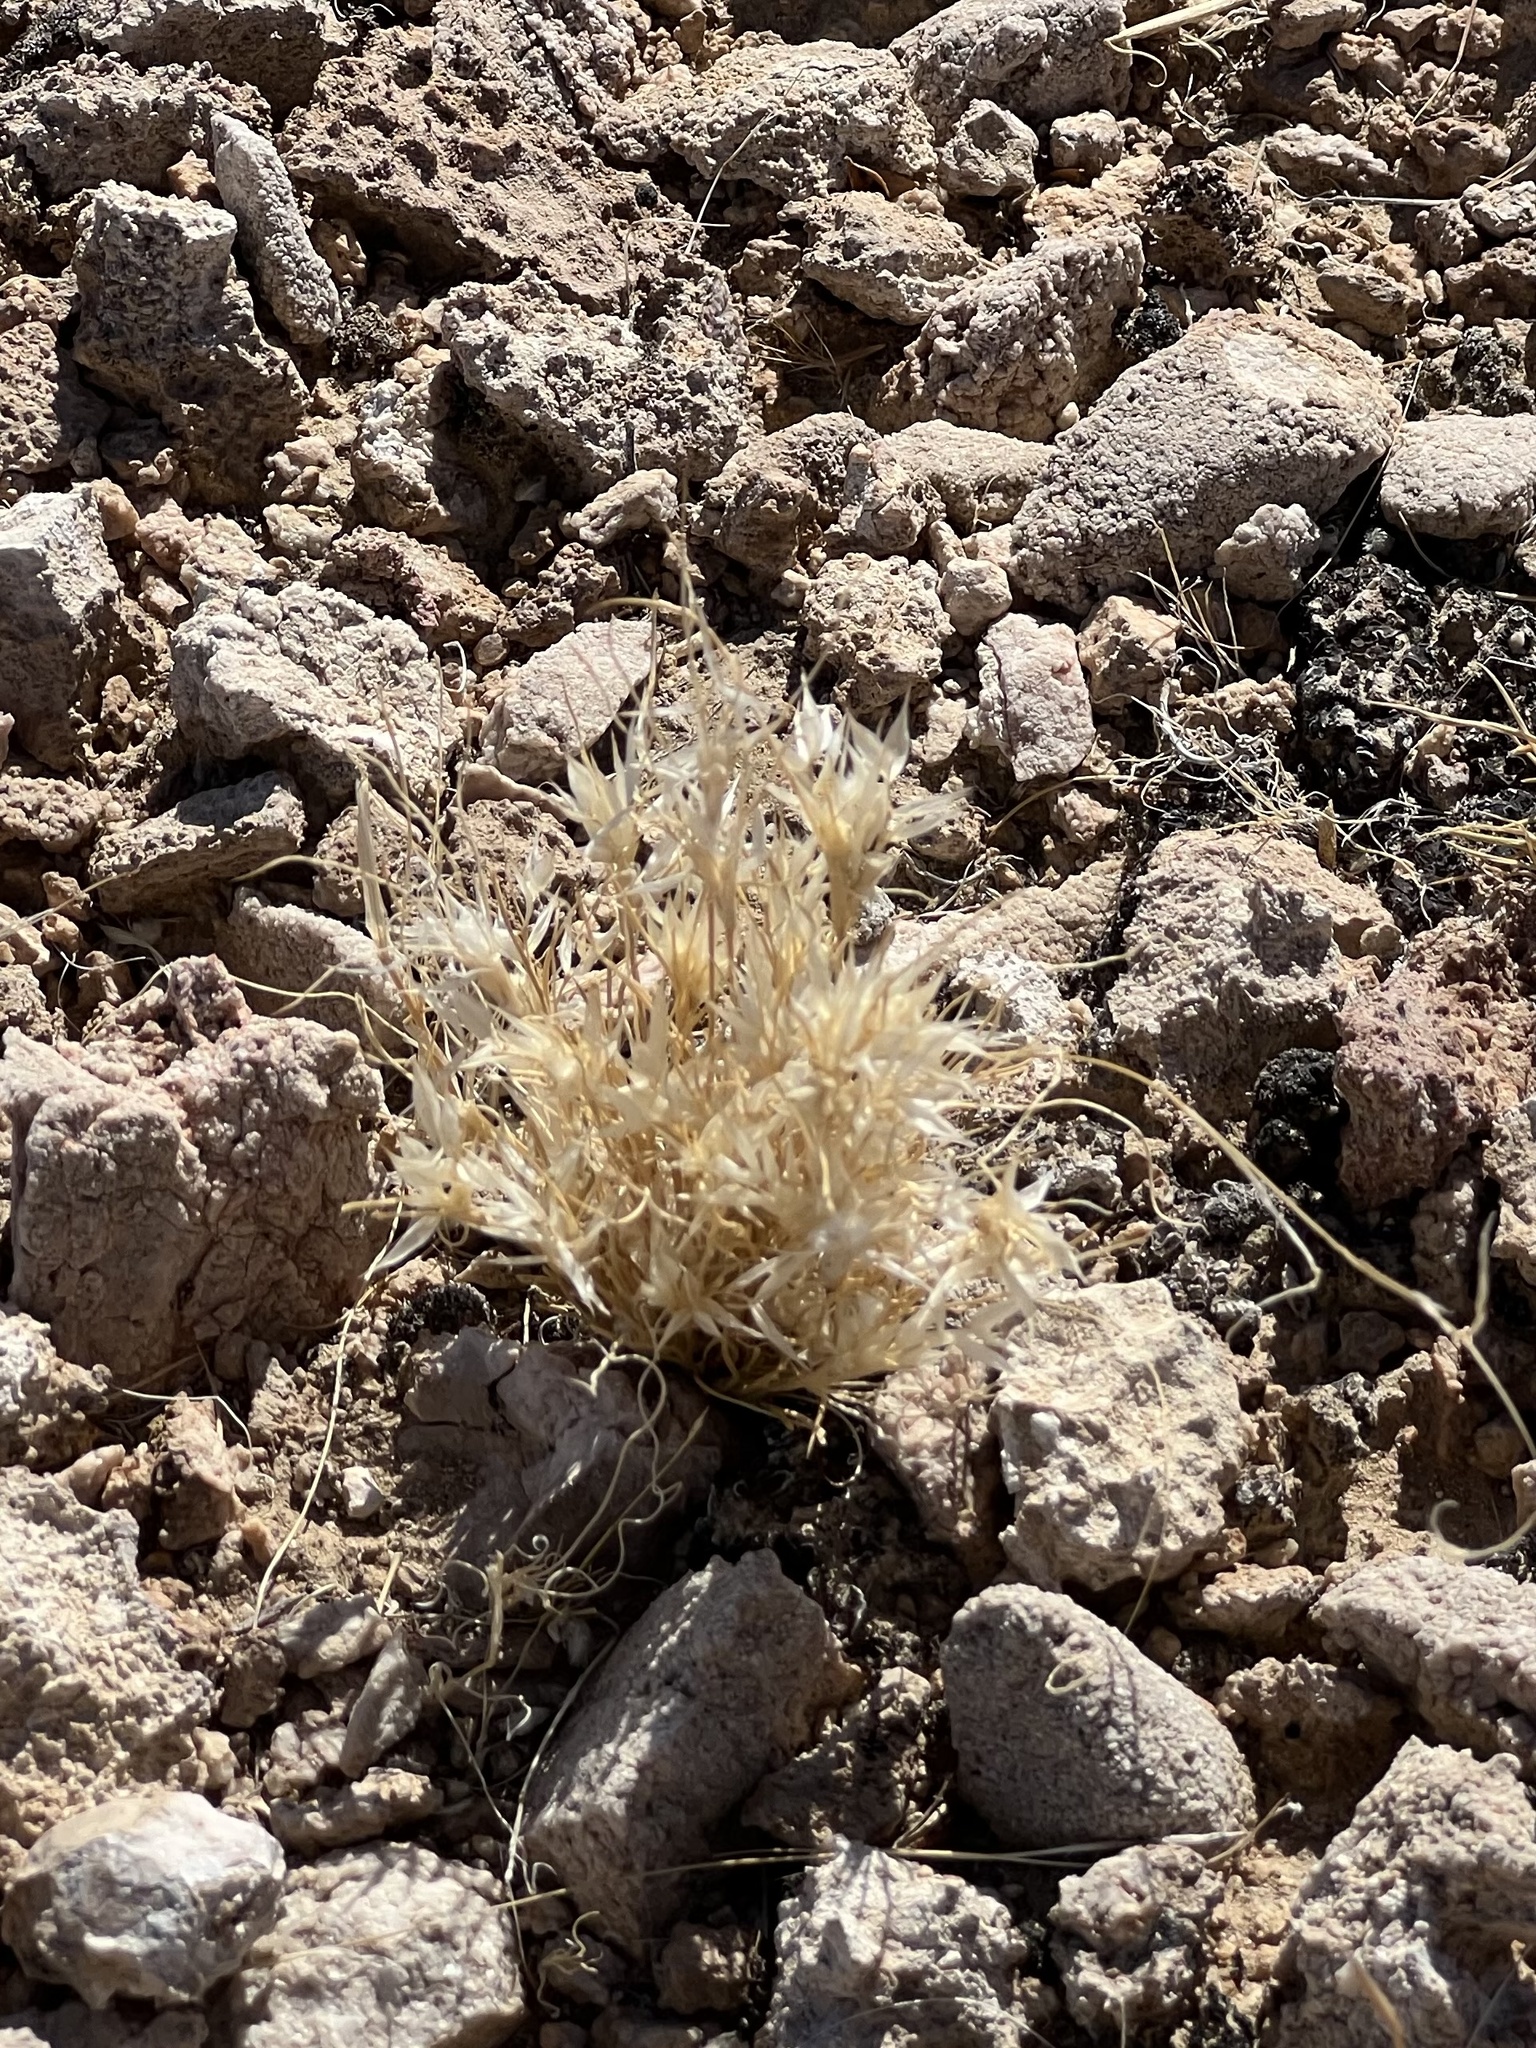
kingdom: Plantae
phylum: Tracheophyta
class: Liliopsida
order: Poales
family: Poaceae
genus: Dasyochloa
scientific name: Dasyochloa pulchella
